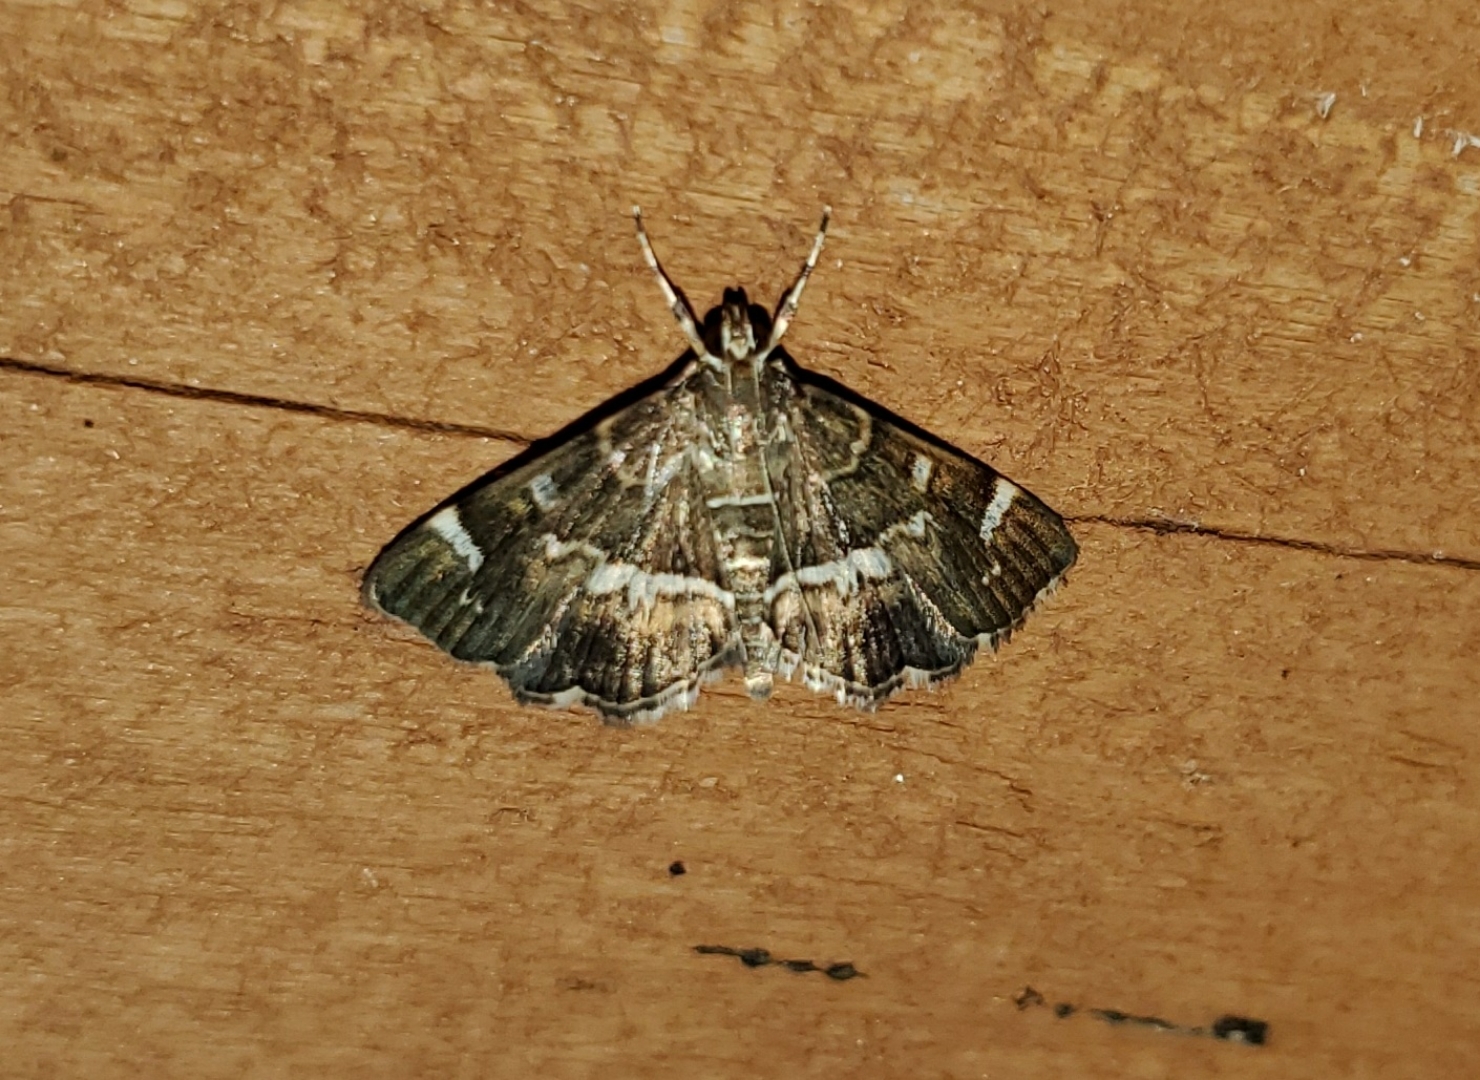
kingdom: Animalia
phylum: Arthropoda
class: Insecta
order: Lepidoptera
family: Crambidae
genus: Hymenia
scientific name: Hymenia perspectalis
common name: Spotted beet webworm
